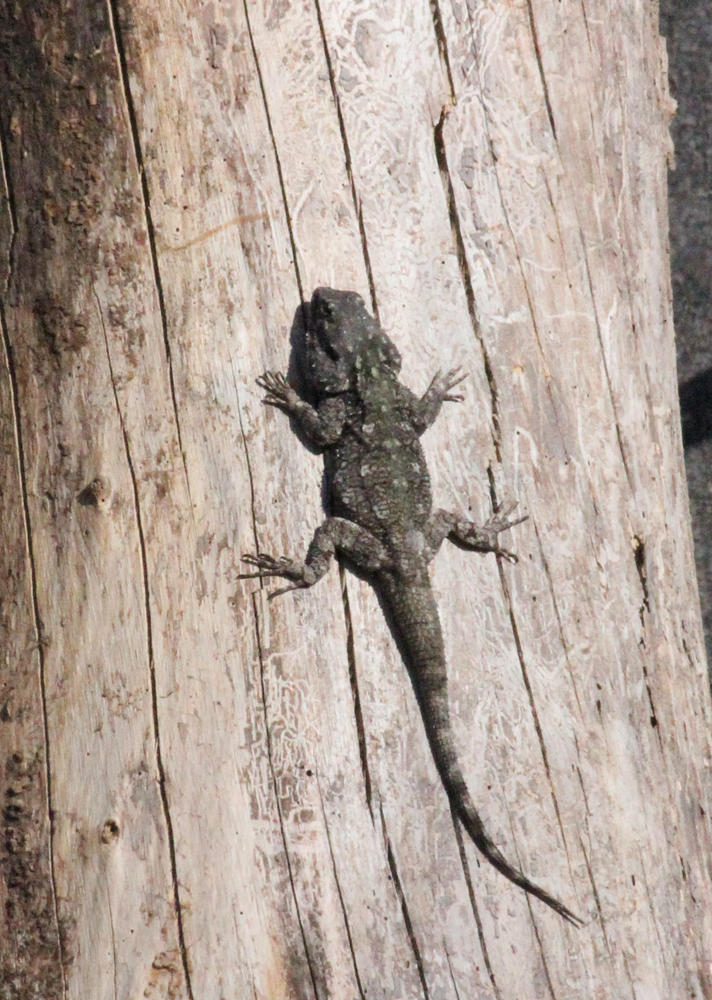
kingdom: Animalia
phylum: Chordata
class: Squamata
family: Agamidae
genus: Acanthocercus
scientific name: Acanthocercus atricollis
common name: Southern tree agama
